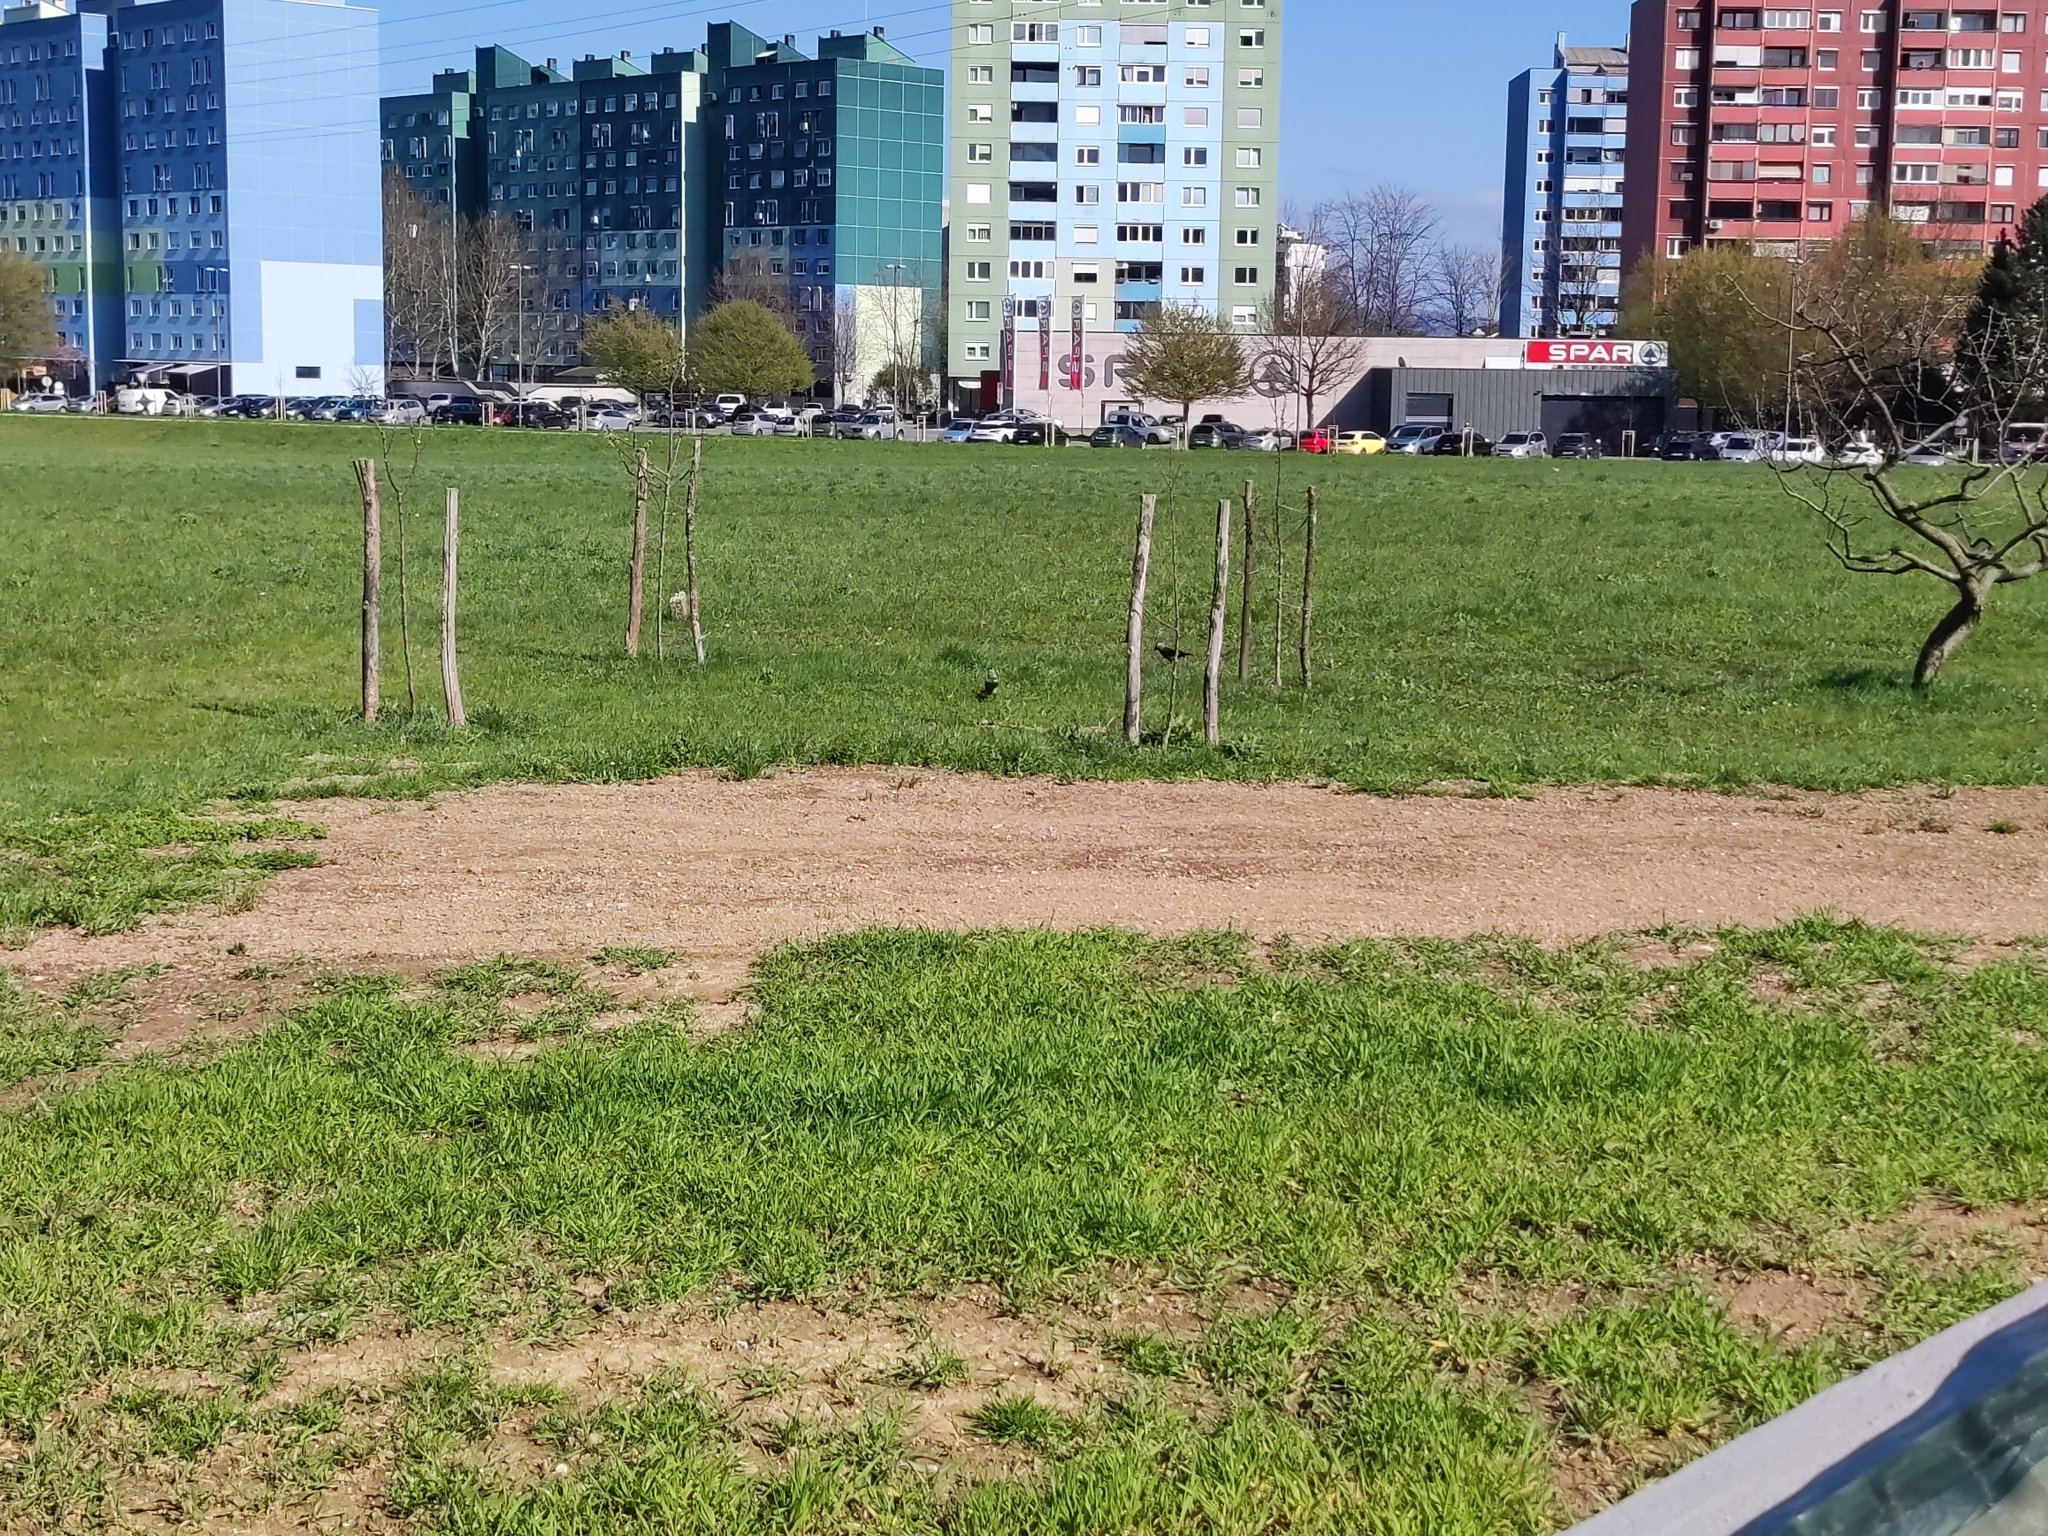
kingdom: Animalia
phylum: Chordata
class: Aves
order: Passeriformes
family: Corvidae
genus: Coloeus
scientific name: Coloeus monedula
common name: Western jackdaw
